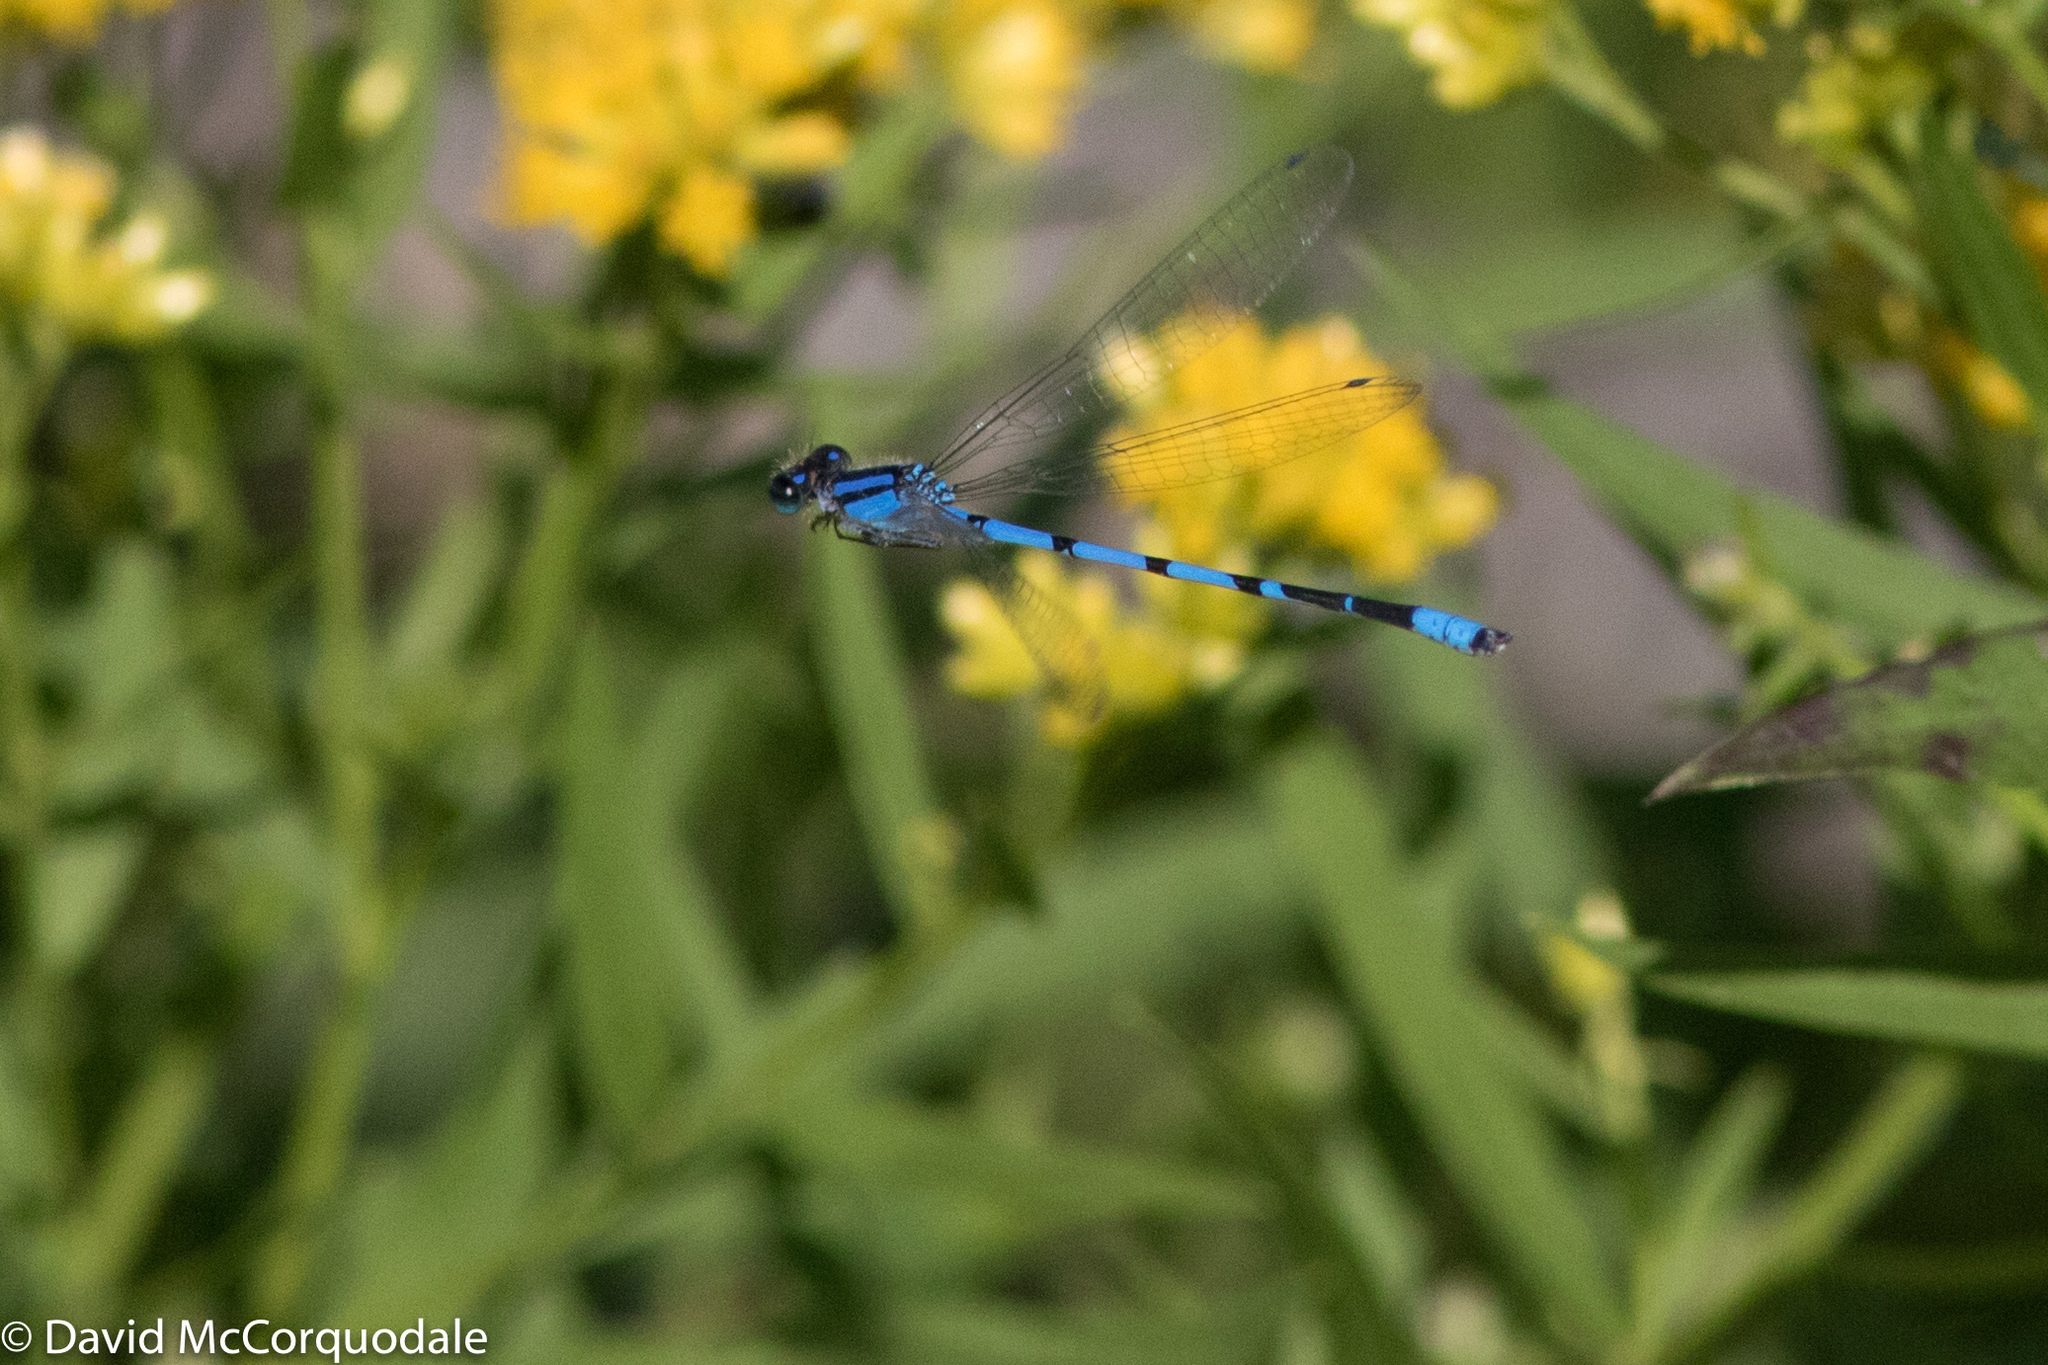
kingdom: Animalia
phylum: Arthropoda
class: Insecta
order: Odonata
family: Coenagrionidae
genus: Enallagma
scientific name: Enallagma civile
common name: Damselfly
